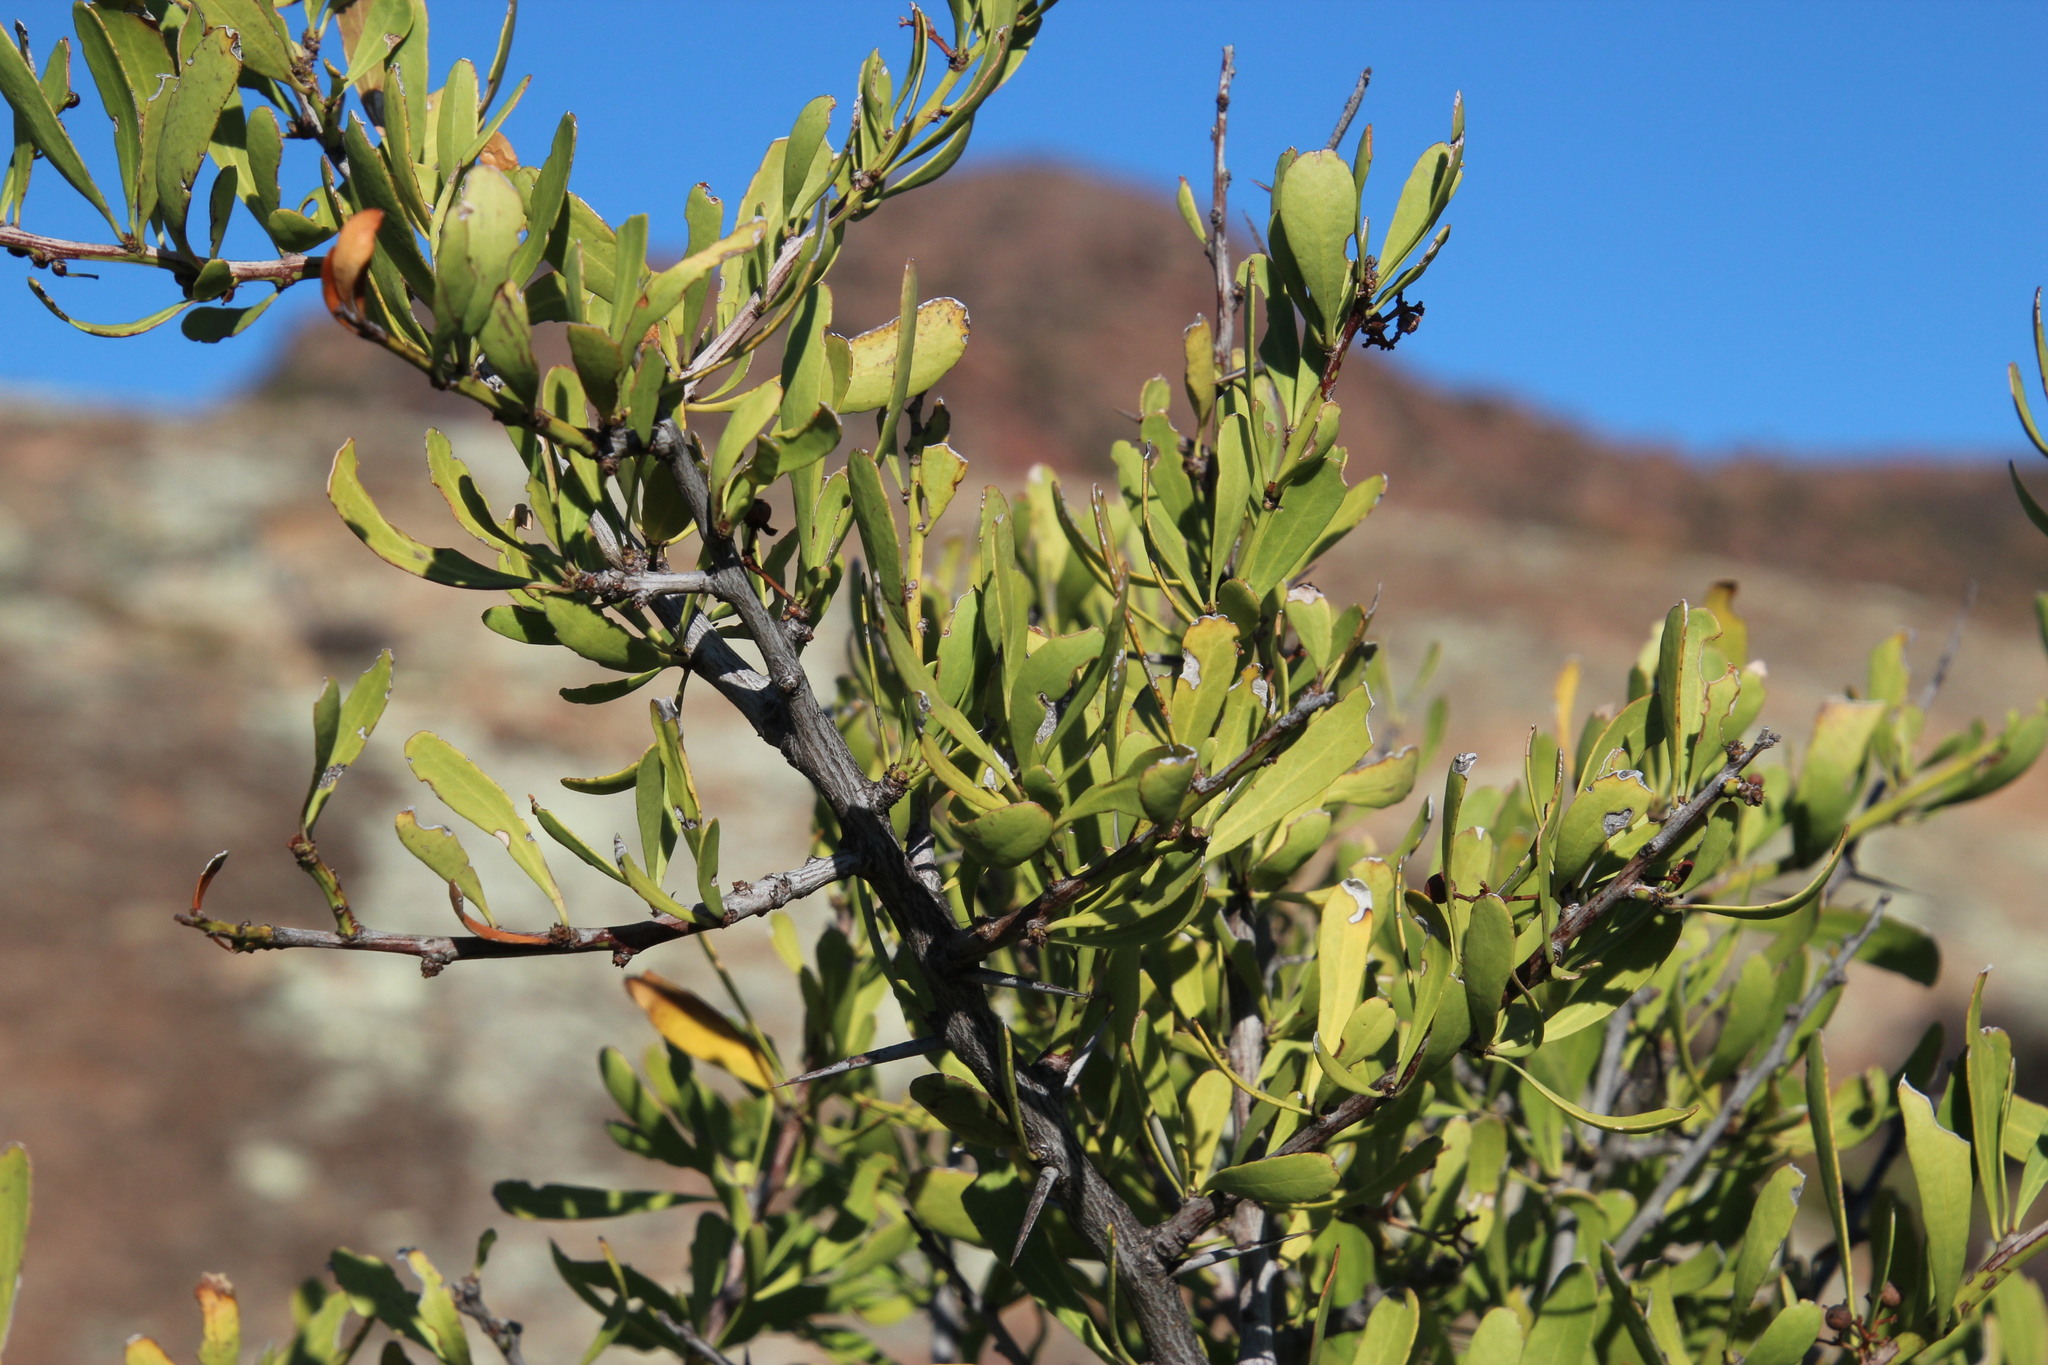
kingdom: Plantae
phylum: Tracheophyta
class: Magnoliopsida
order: Celastrales
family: Celastraceae
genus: Gymnosporia
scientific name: Gymnosporia buxifolia
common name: Common spike-thorn
